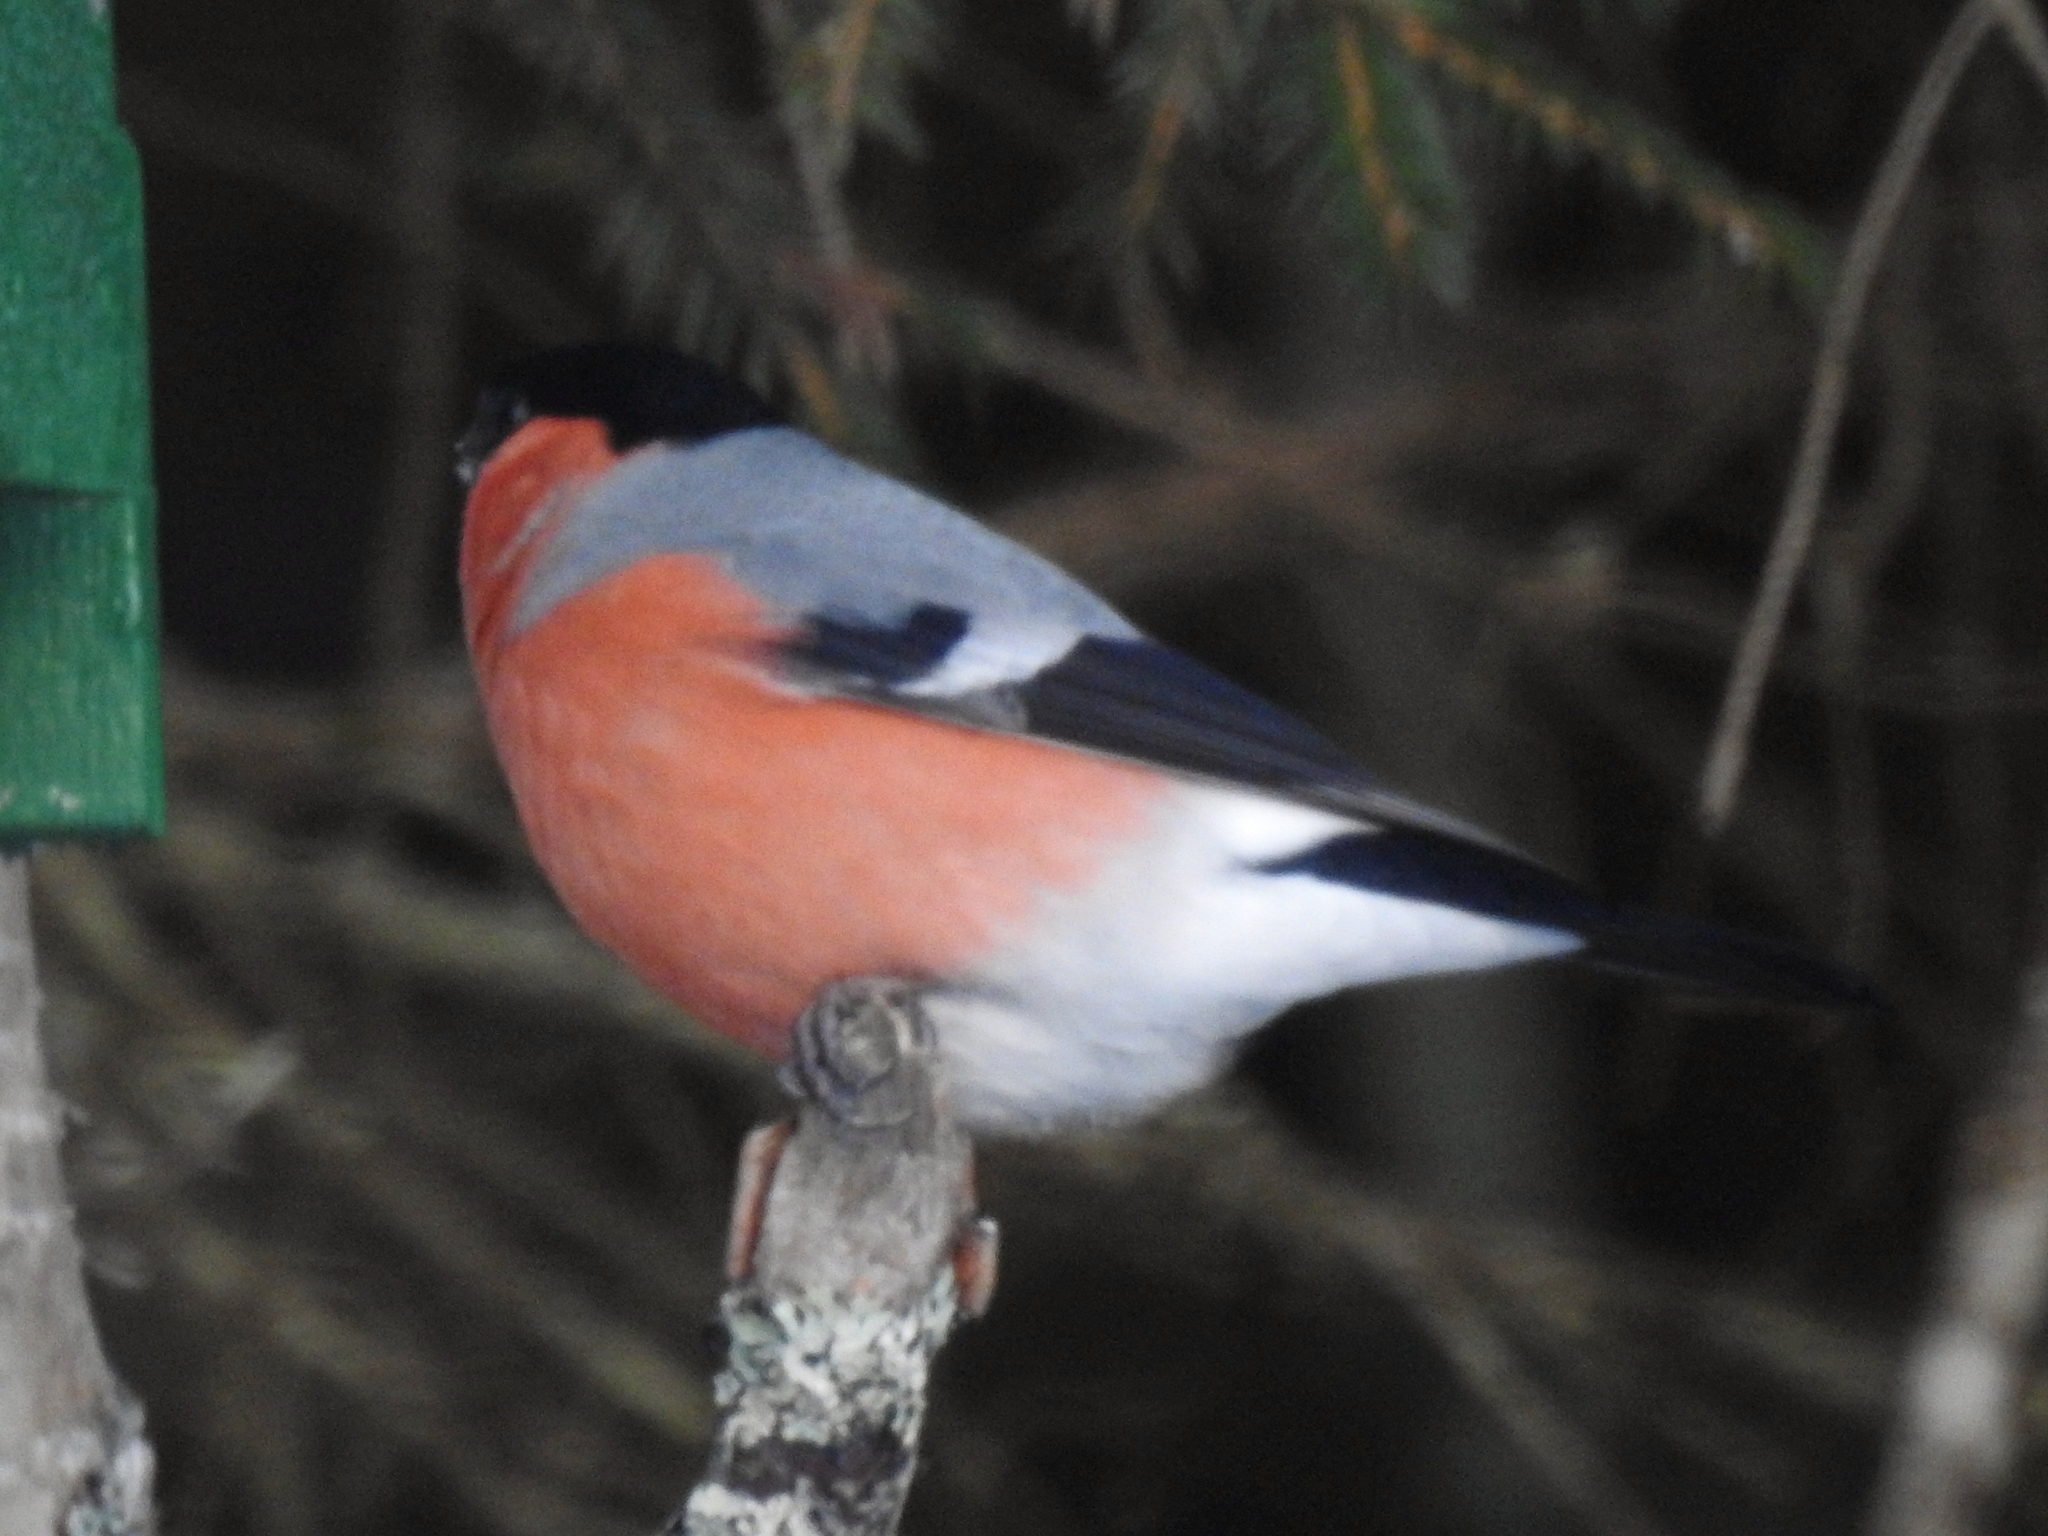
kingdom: Animalia
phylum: Chordata
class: Aves
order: Passeriformes
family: Fringillidae
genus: Pyrrhula
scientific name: Pyrrhula pyrrhula
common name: Eurasian bullfinch
